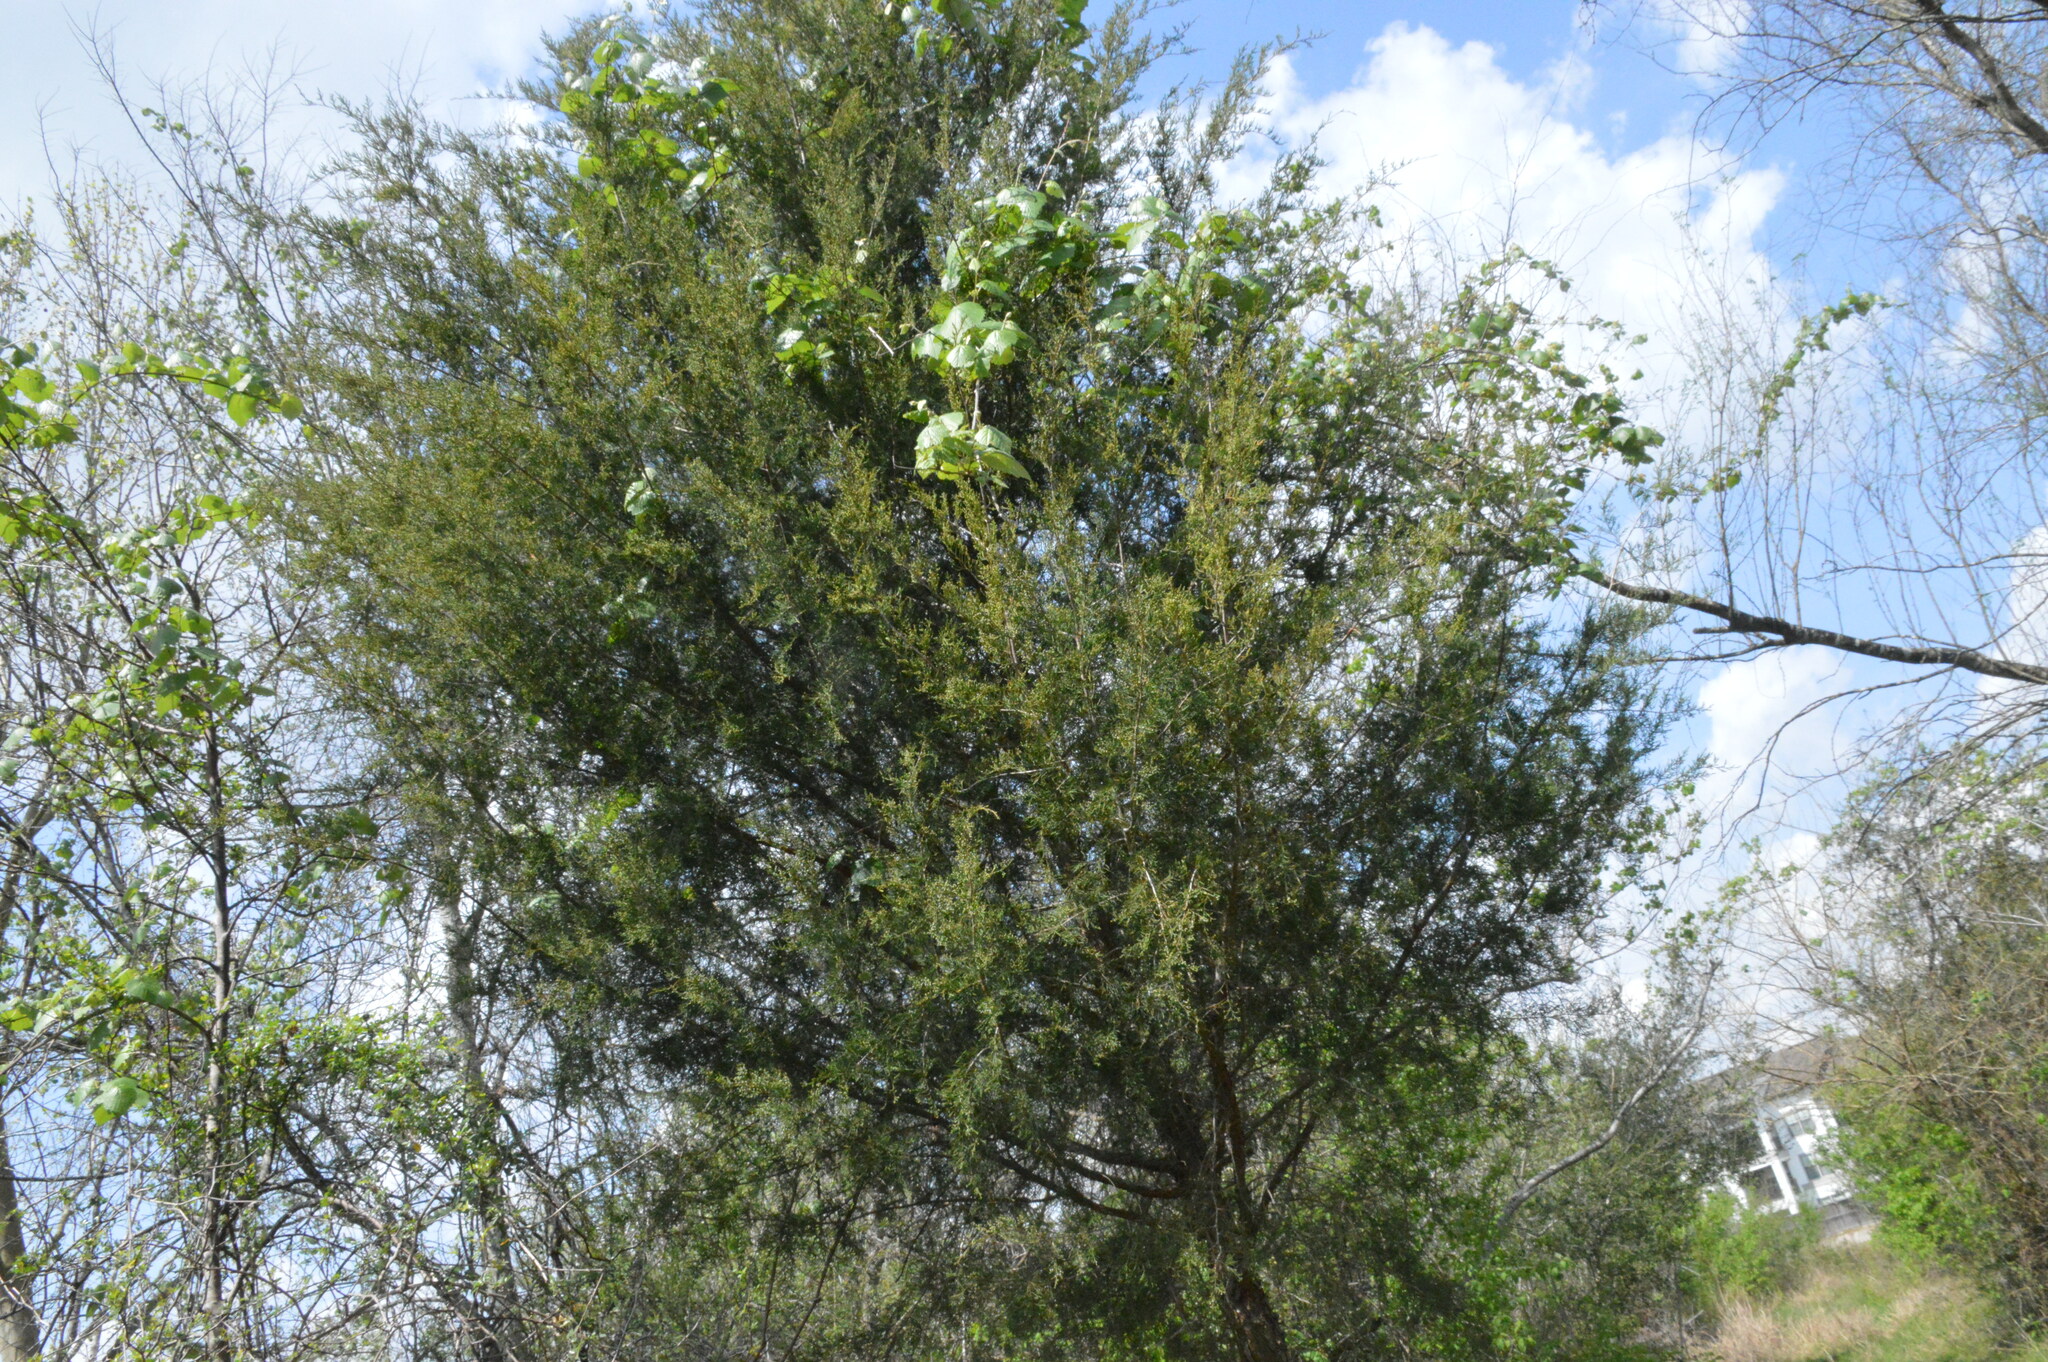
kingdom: Plantae
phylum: Tracheophyta
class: Pinopsida
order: Pinales
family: Cupressaceae
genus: Juniperus
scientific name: Juniperus virginiana
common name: Red juniper
